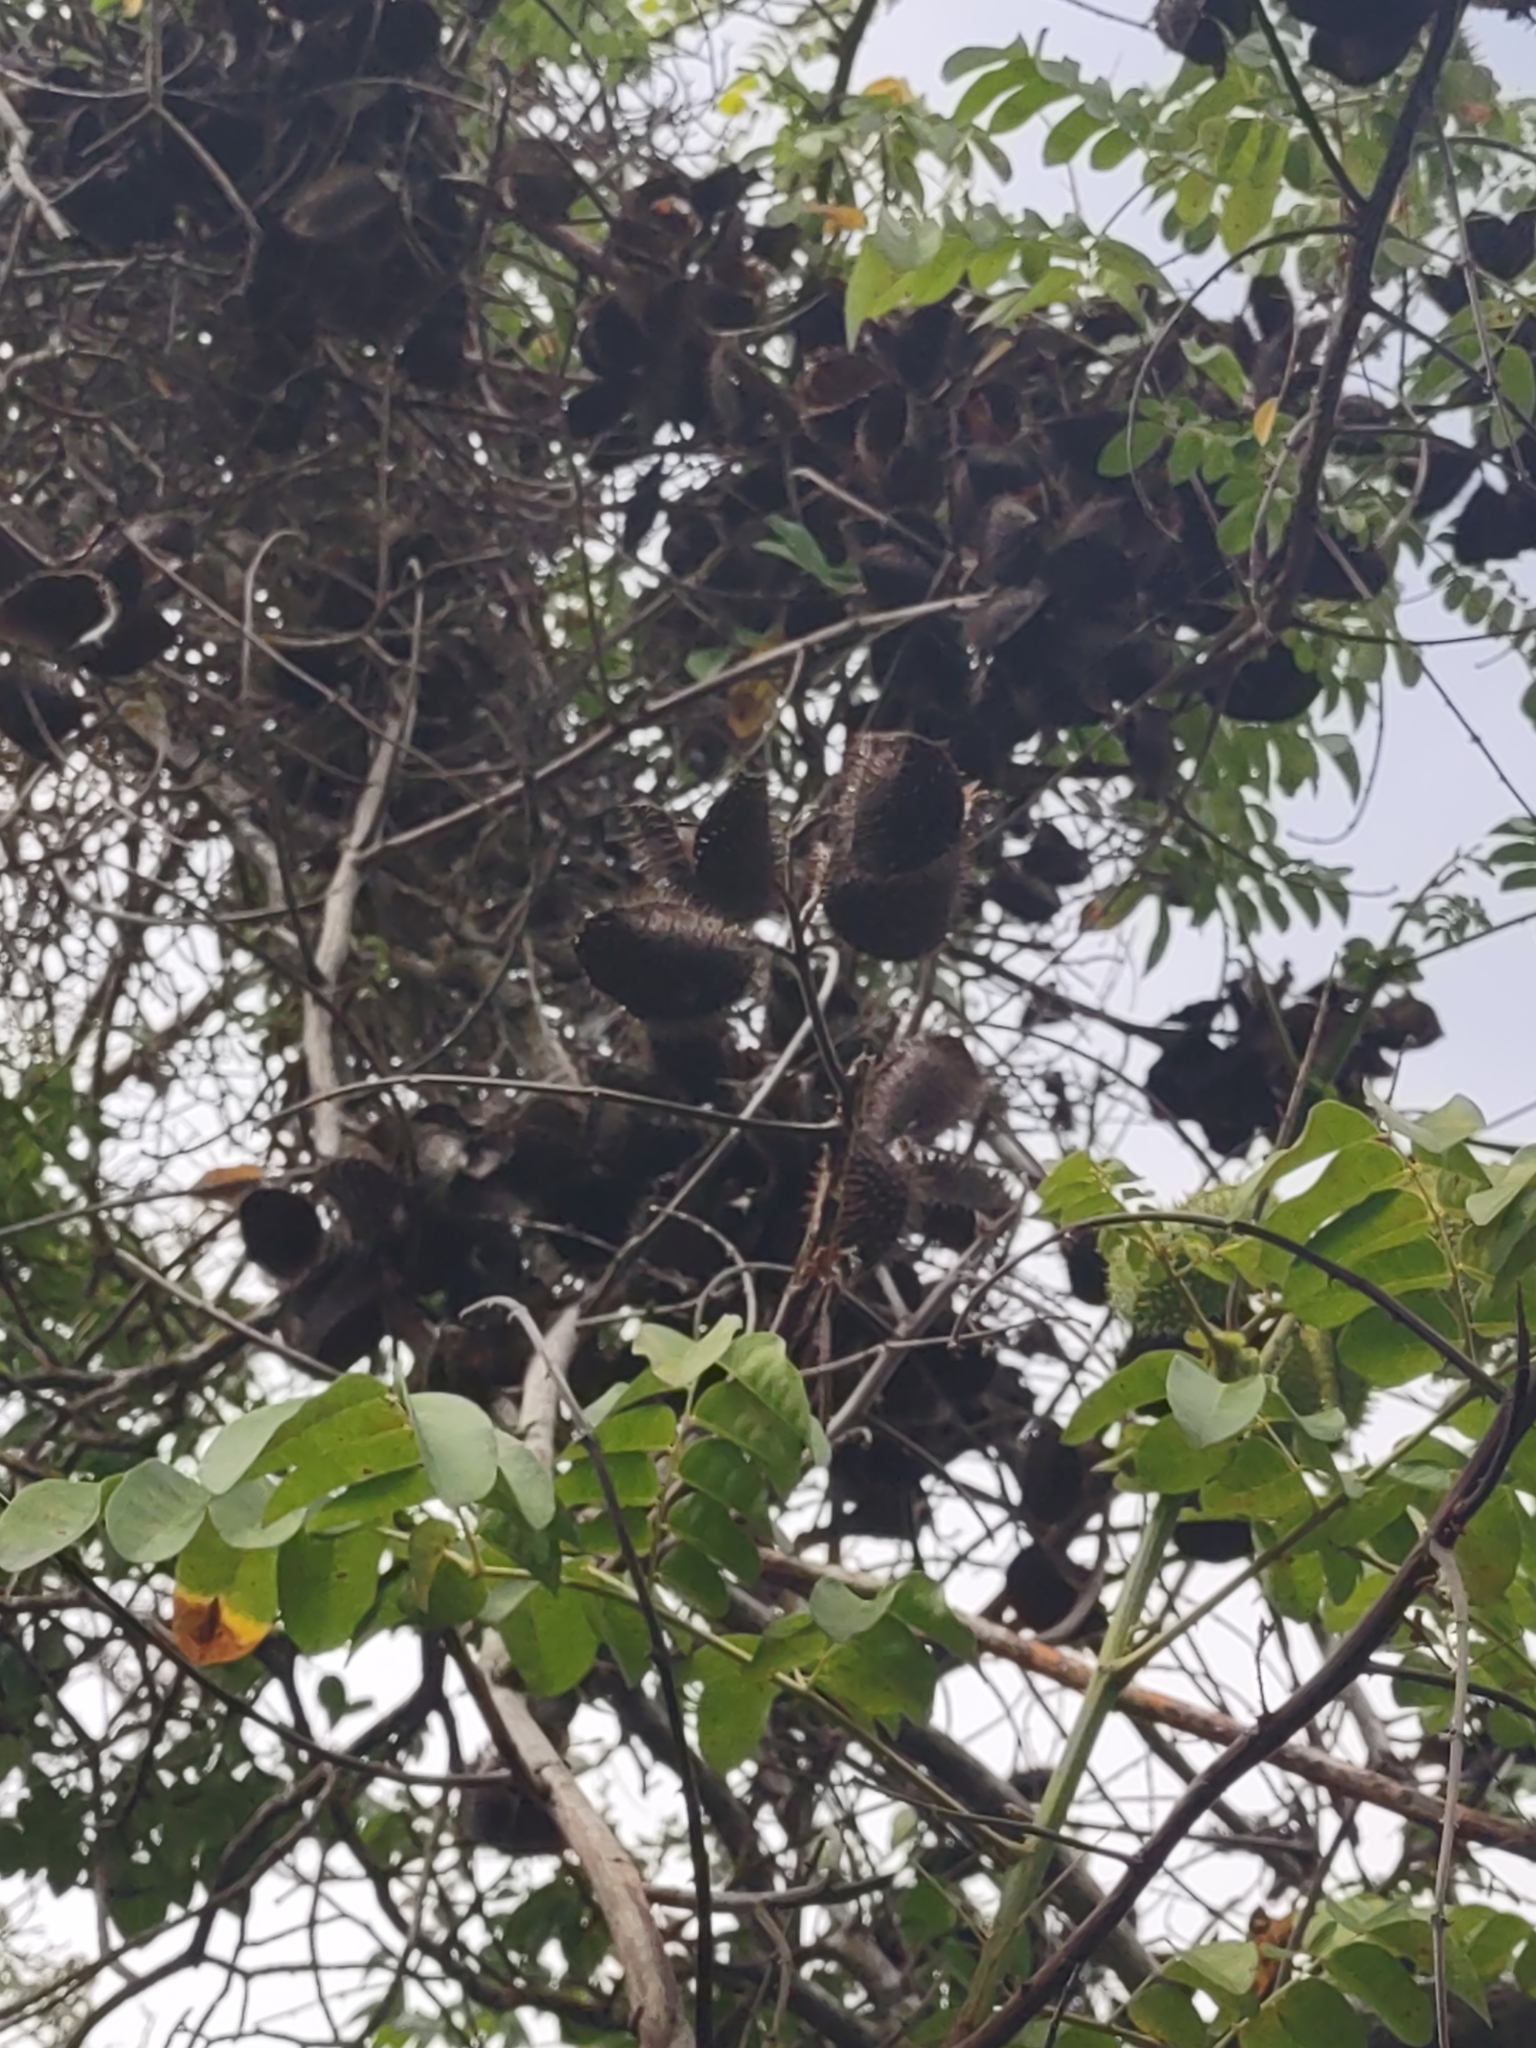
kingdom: Plantae
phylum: Tracheophyta
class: Magnoliopsida
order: Fabales
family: Fabaceae
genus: Guilandina
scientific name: Guilandina bonduc
